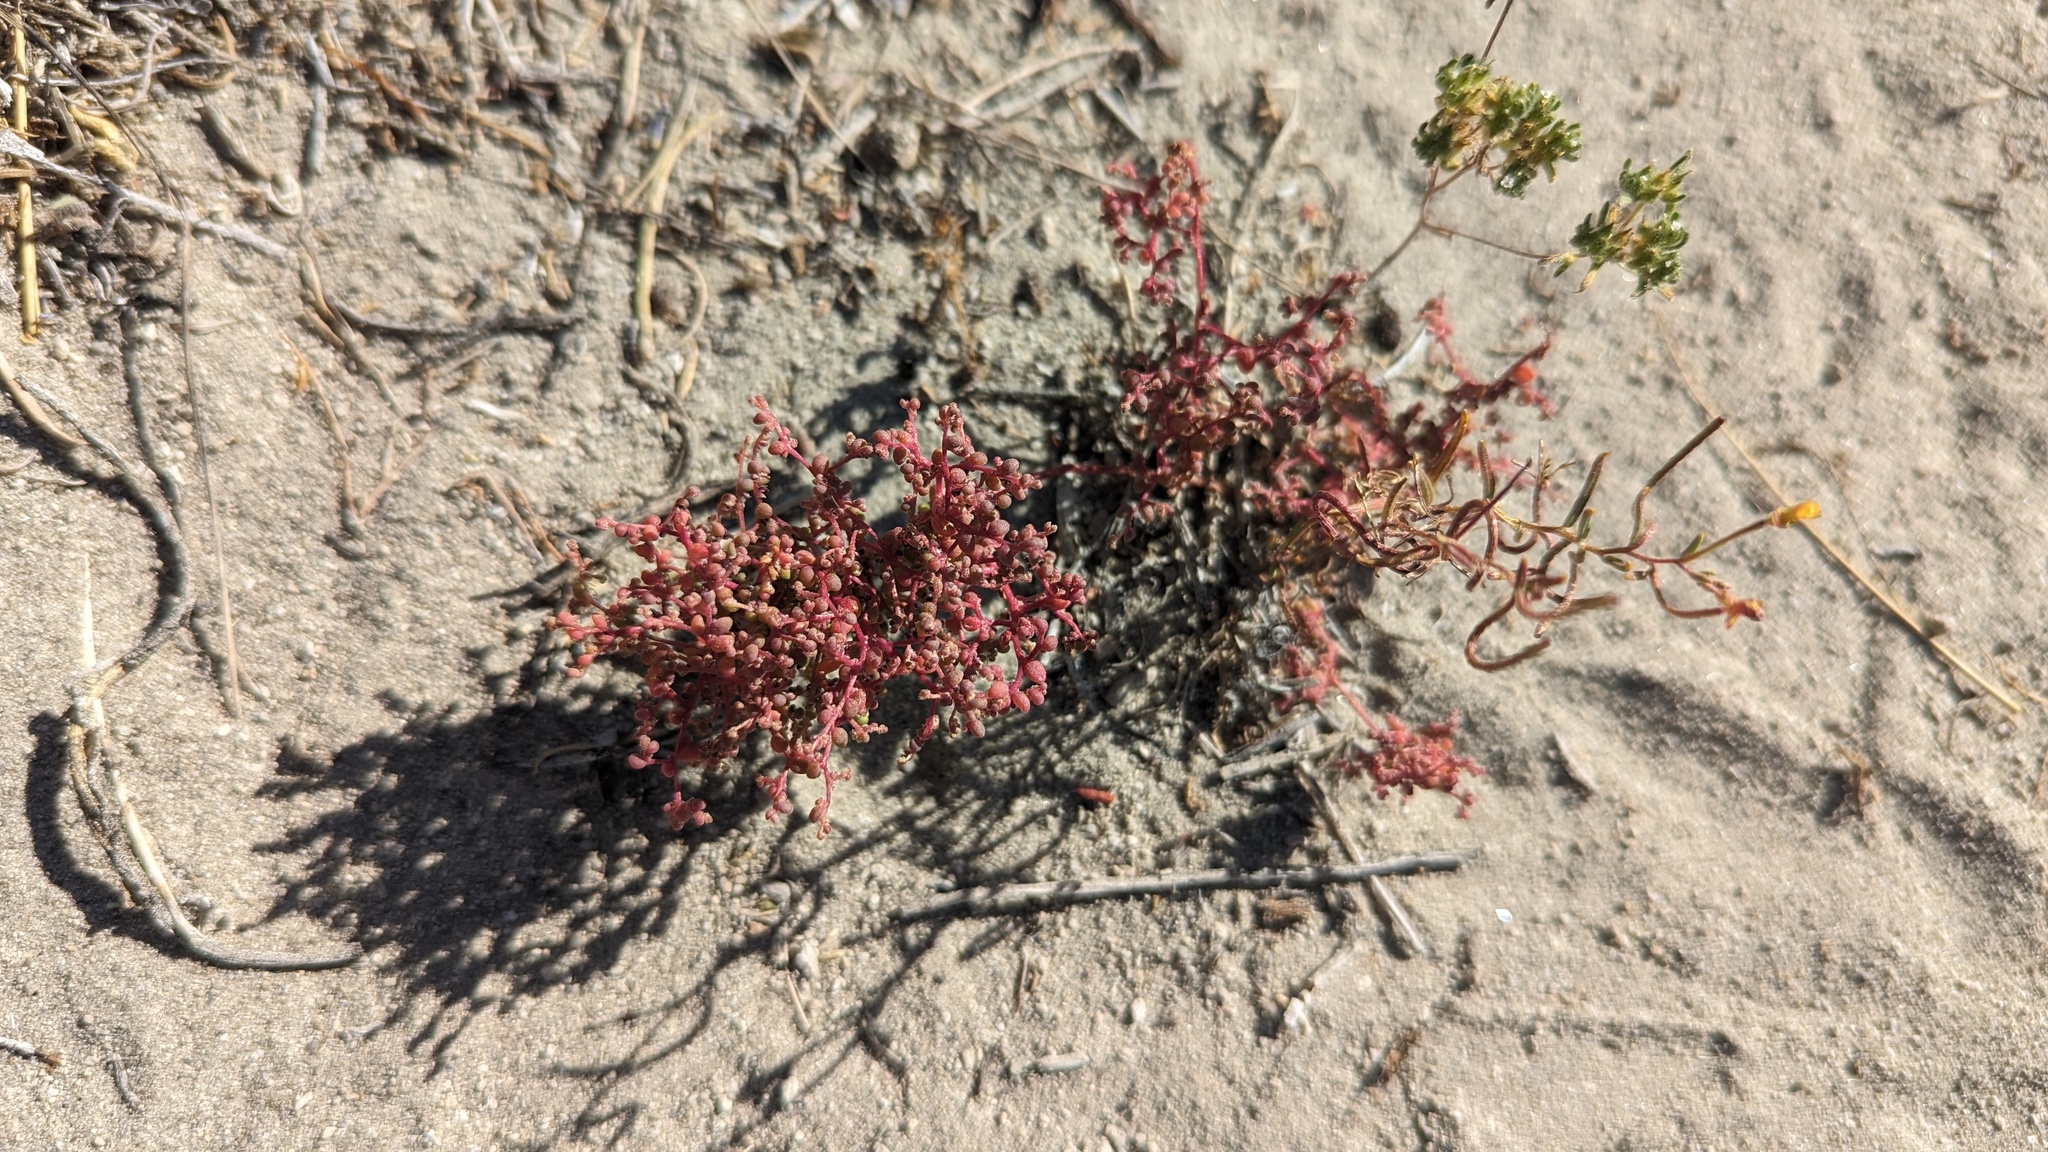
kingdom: Plantae
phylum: Tracheophyta
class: Magnoliopsida
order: Caryophyllales
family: Amaranthaceae
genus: Micromonolepis
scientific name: Micromonolepis pusilla
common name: Dwarf monolepis
